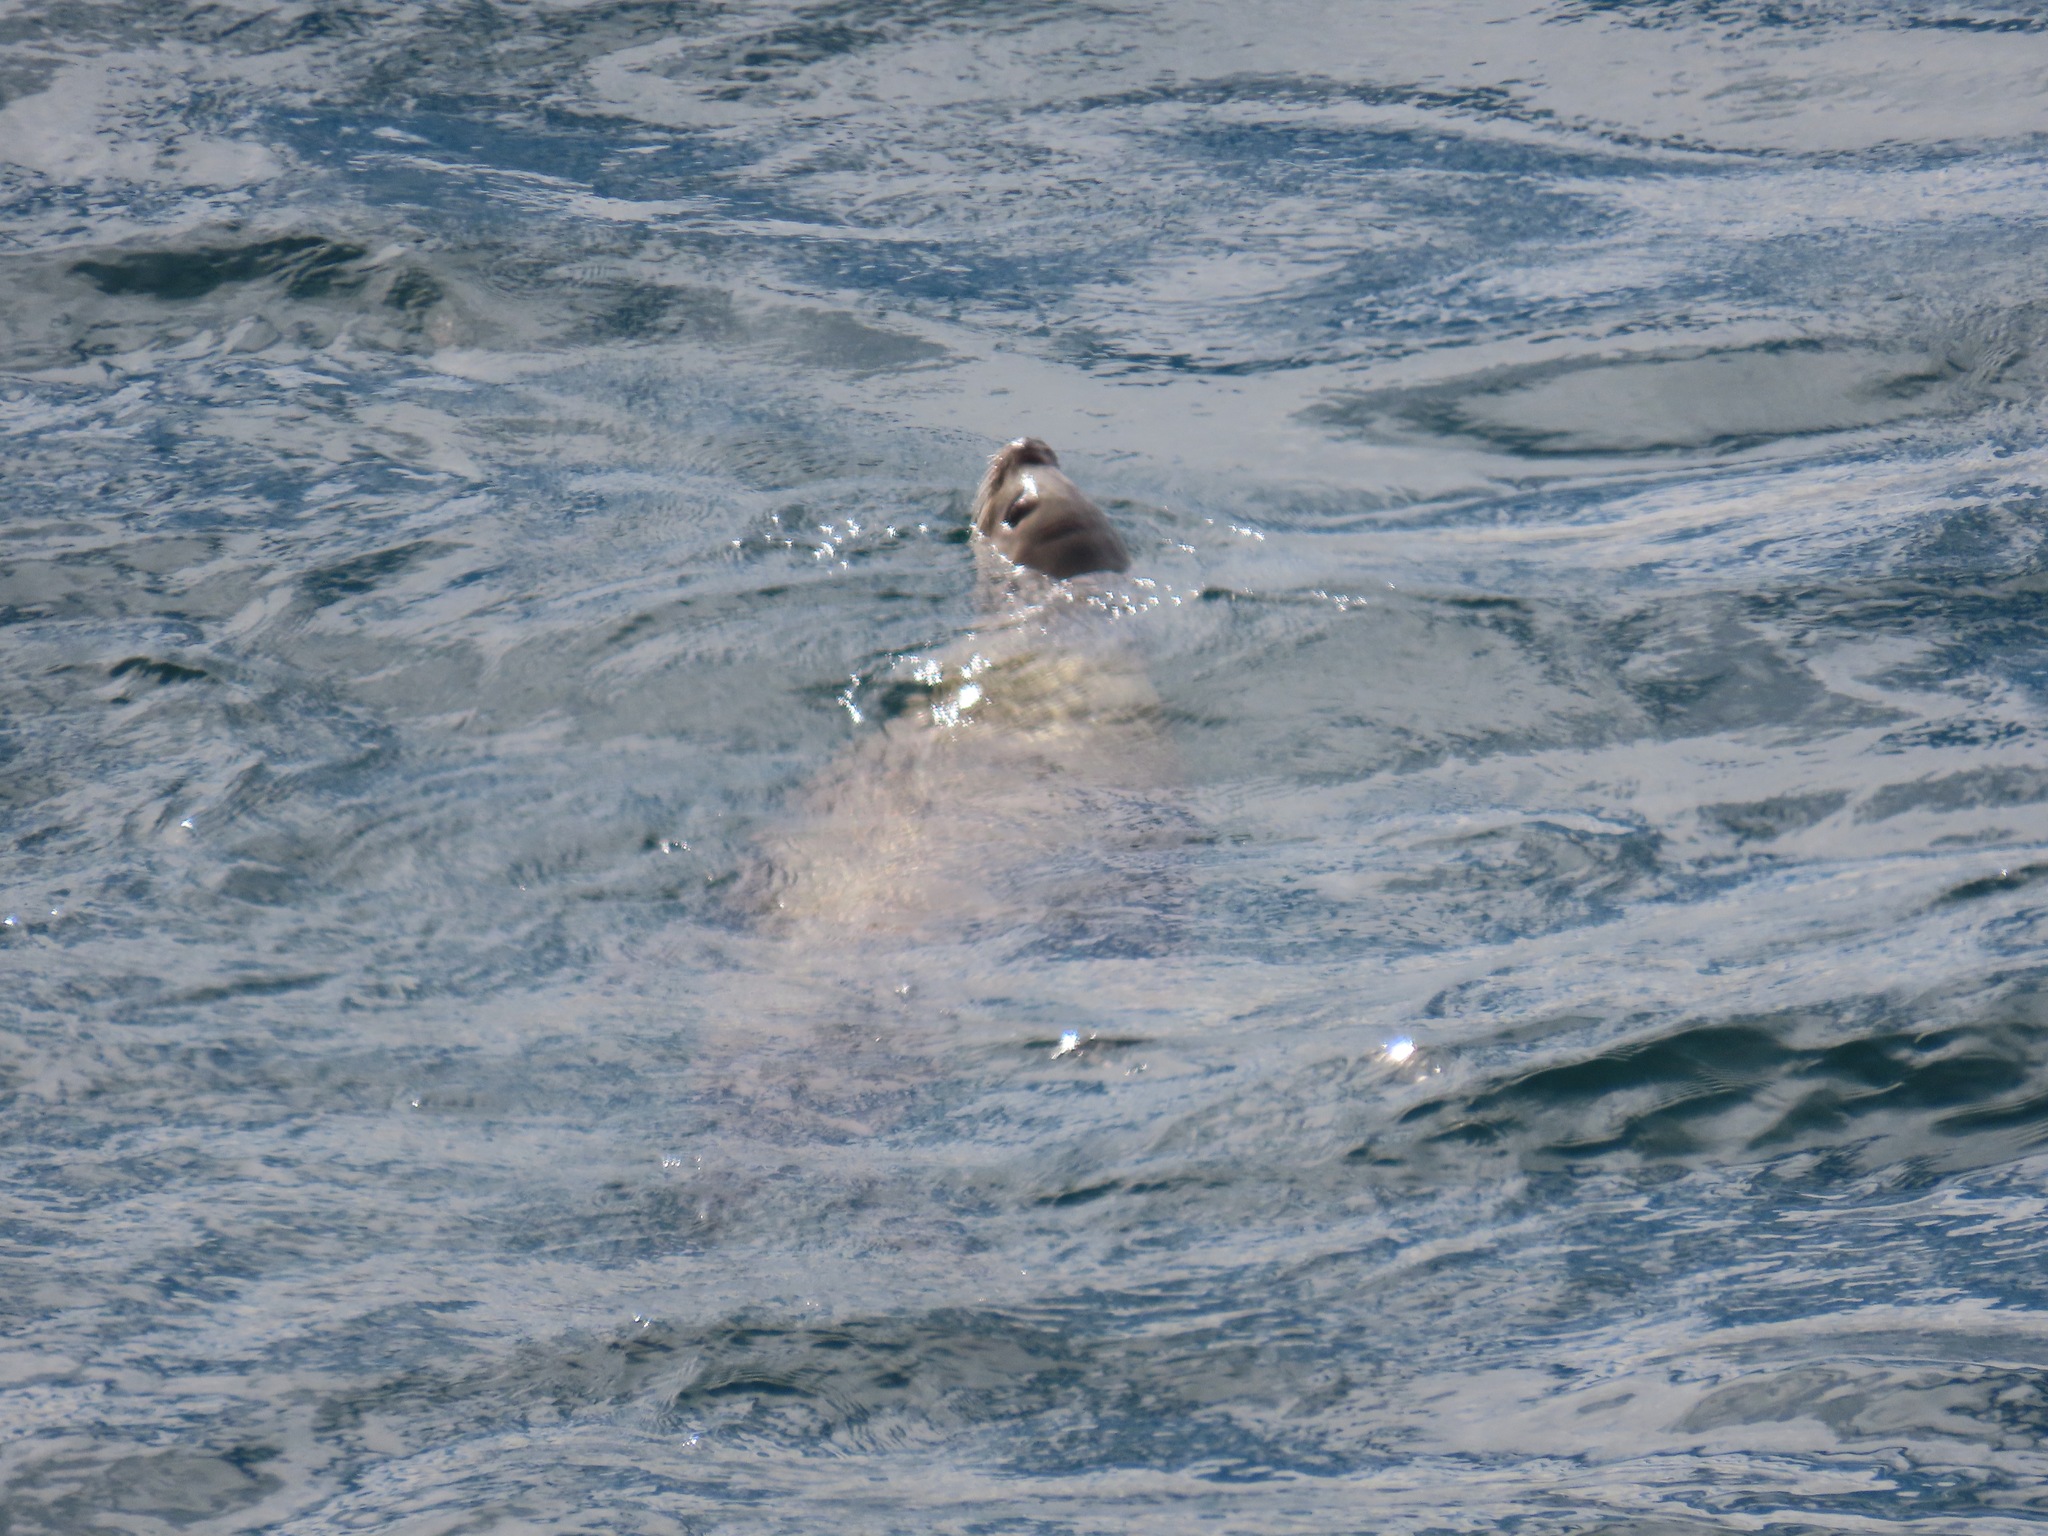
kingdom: Animalia
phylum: Chordata
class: Mammalia
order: Carnivora
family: Otariidae
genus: Eumetopias
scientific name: Eumetopias jubatus
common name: Steller sea lion
